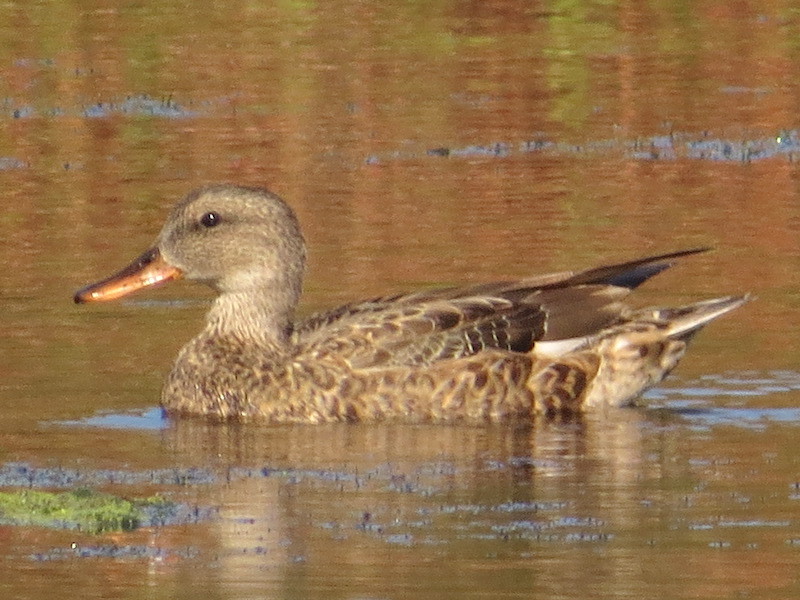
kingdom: Animalia
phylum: Chordata
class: Aves
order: Anseriformes
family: Anatidae
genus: Mareca
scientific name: Mareca strepera
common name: Gadwall
